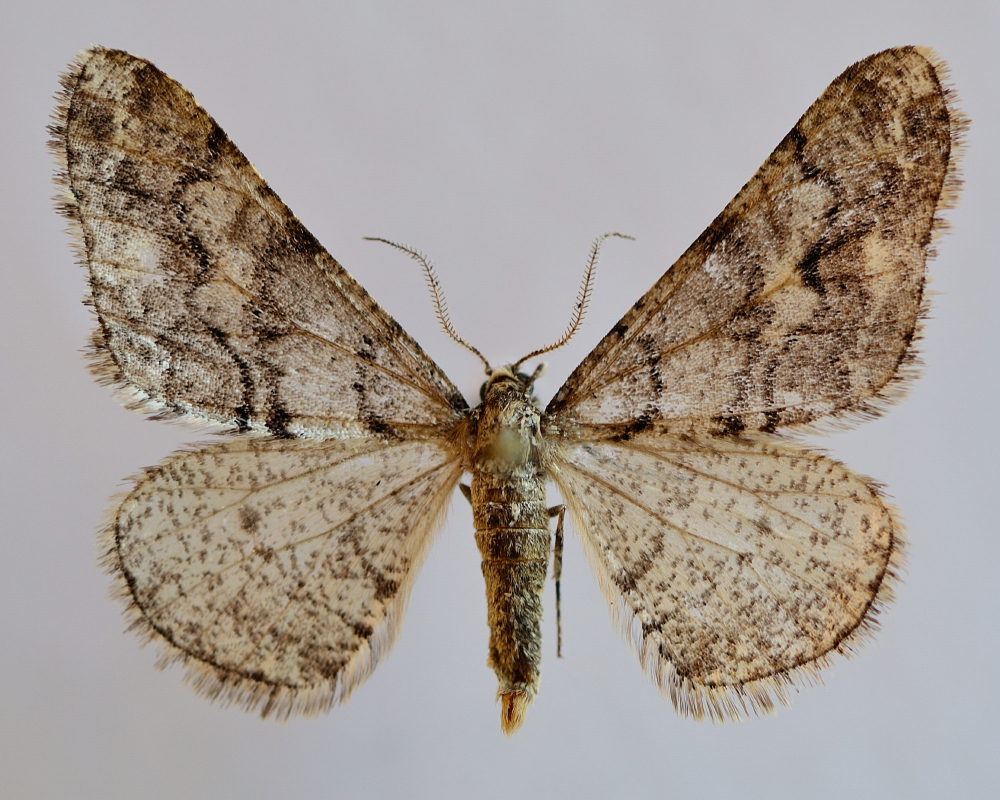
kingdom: Animalia
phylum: Arthropoda
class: Insecta
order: Lepidoptera
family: Geometridae
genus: Agriopis
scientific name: Agriopis leucophaearia
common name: Spring usher
